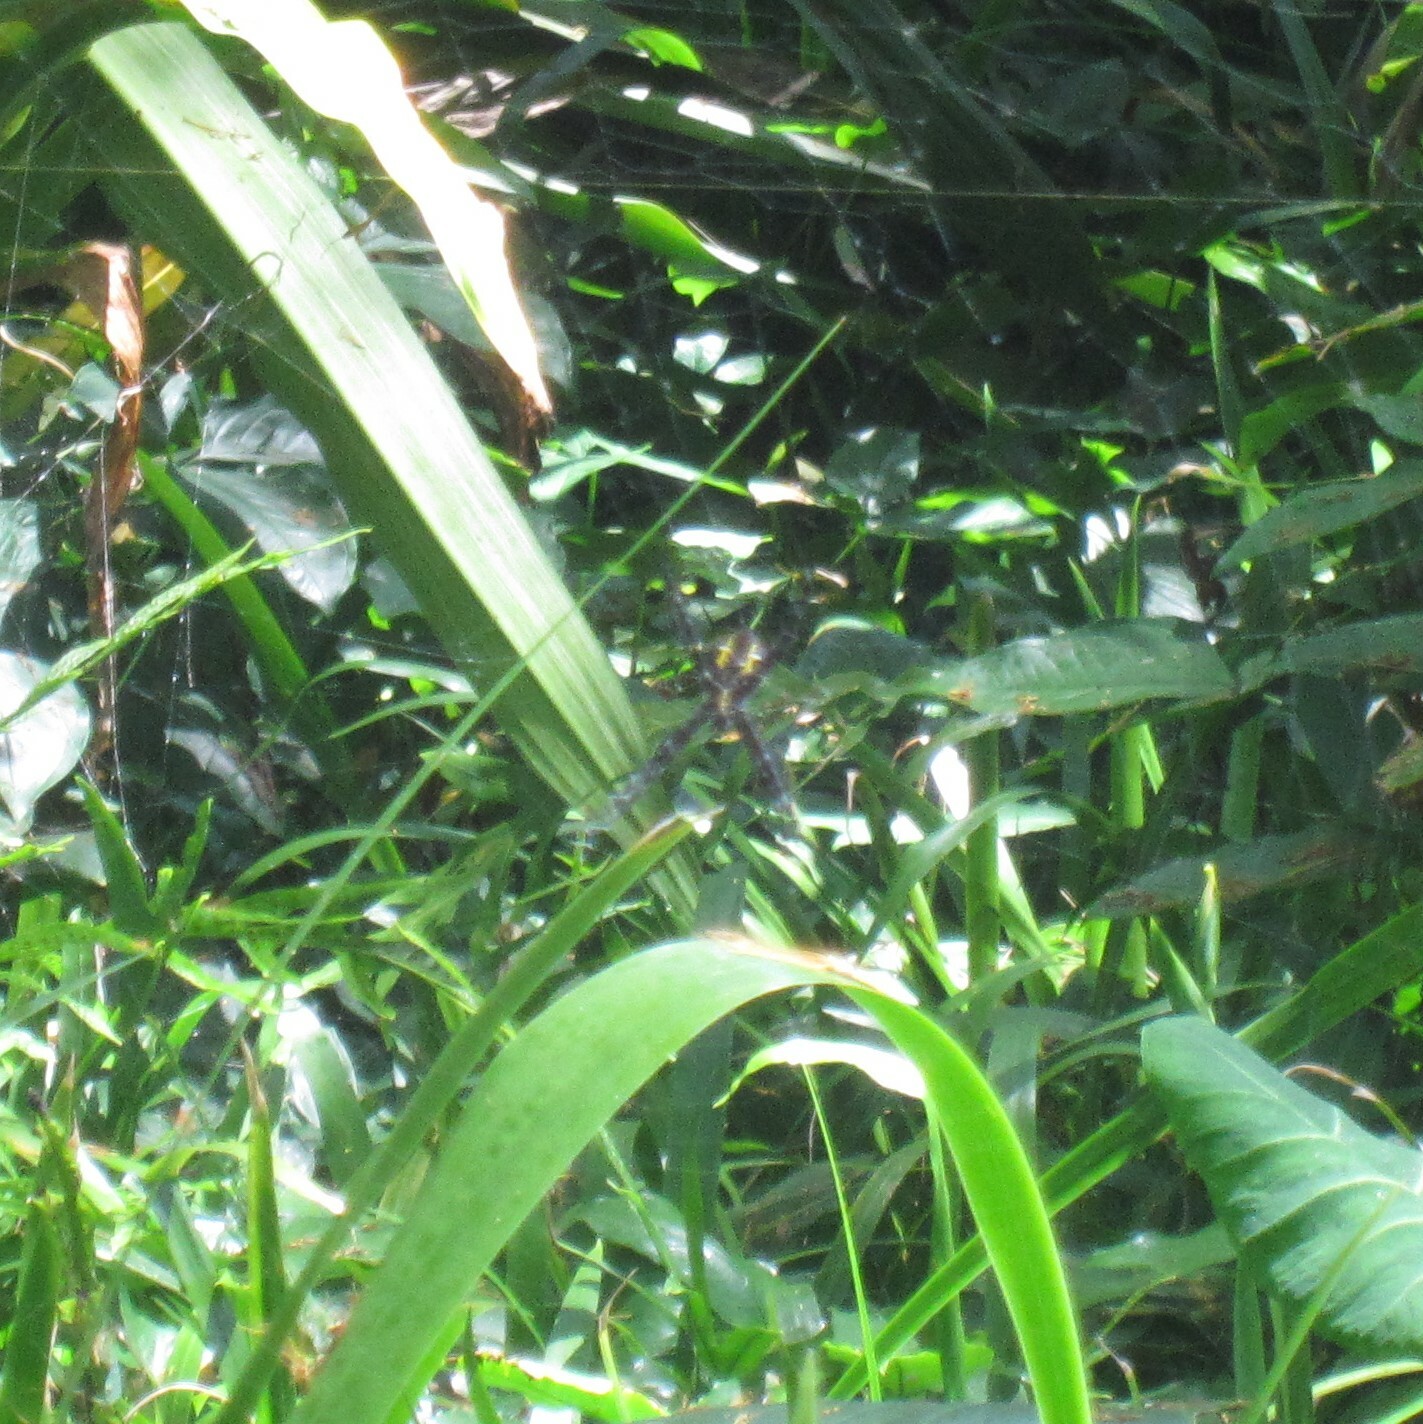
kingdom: Animalia
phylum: Arthropoda
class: Arachnida
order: Araneae
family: Araneidae
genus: Argiope
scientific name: Argiope appensa
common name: Garden spider
